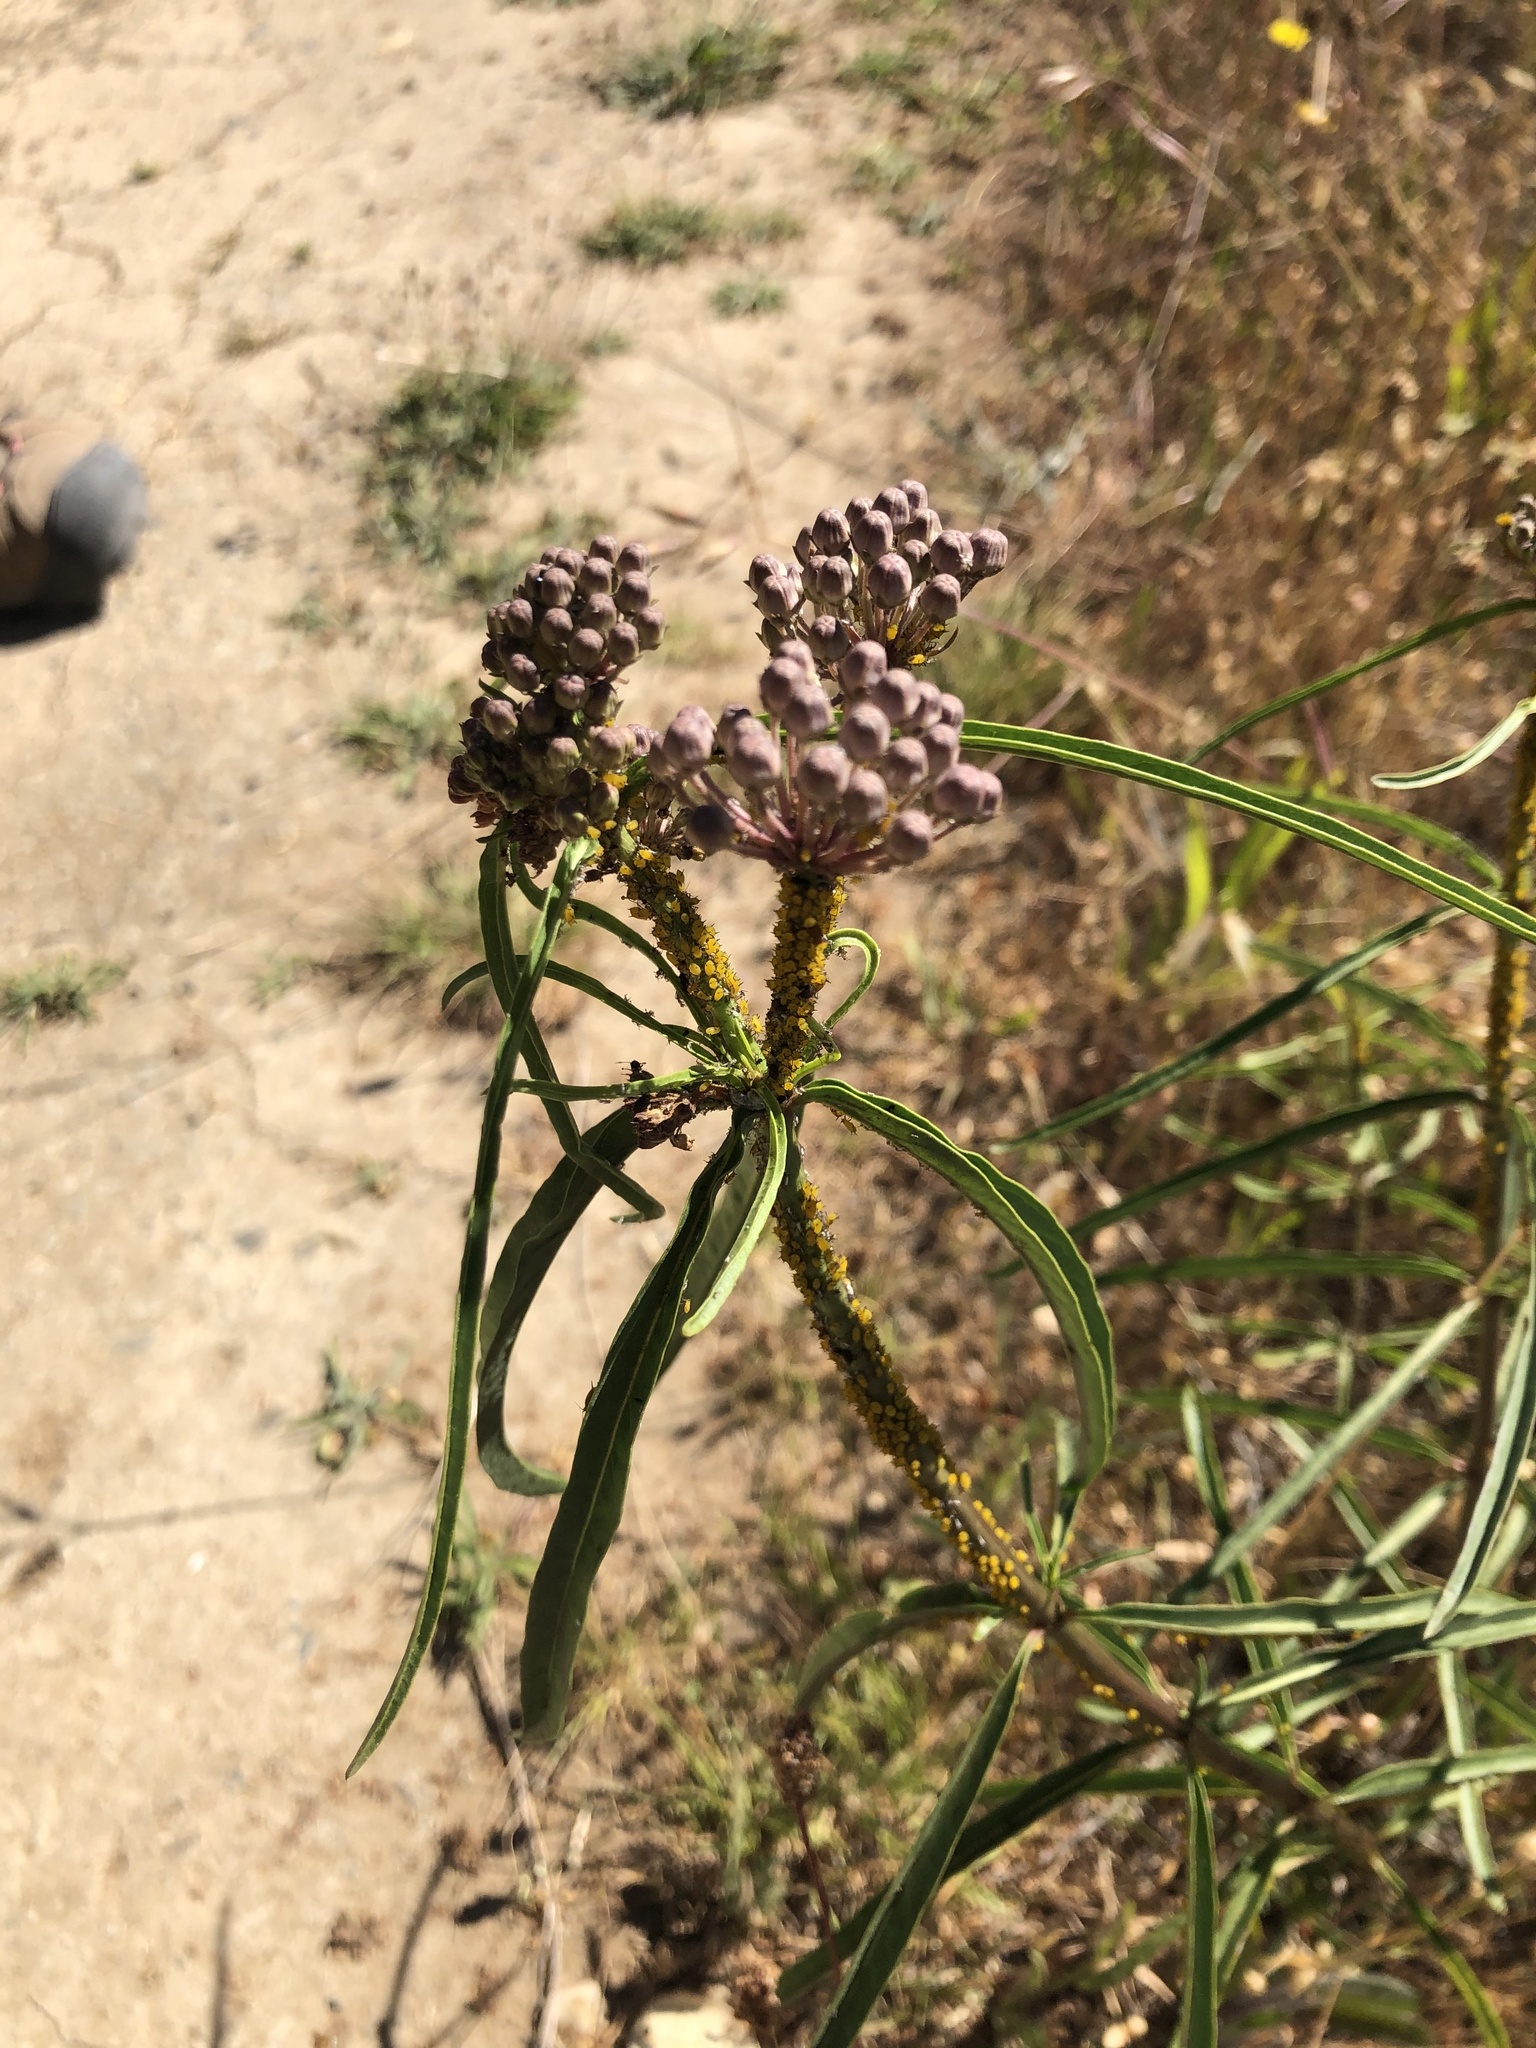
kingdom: Plantae
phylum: Tracheophyta
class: Magnoliopsida
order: Gentianales
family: Apocynaceae
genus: Asclepias
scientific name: Asclepias fascicularis
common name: Mexican milkweed
